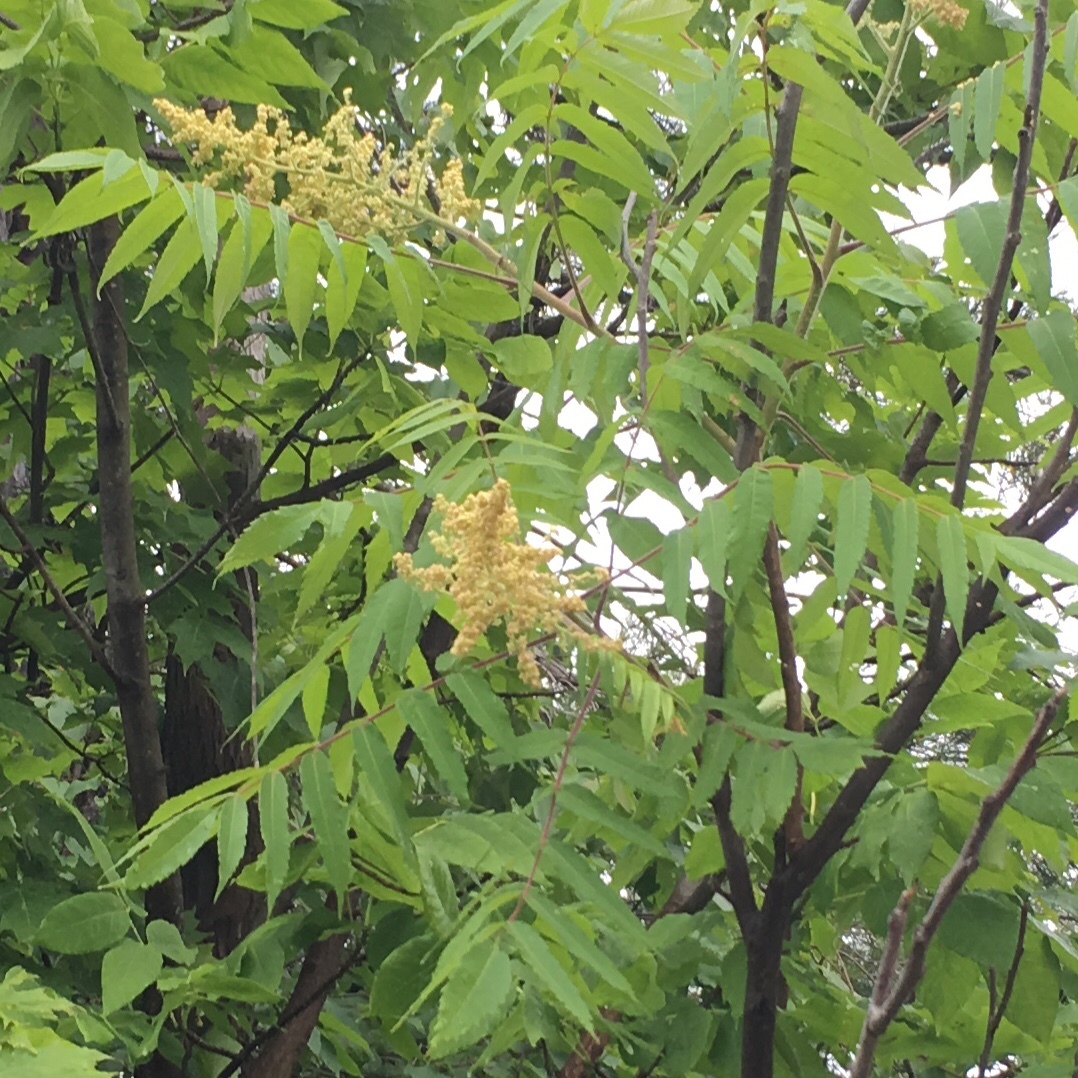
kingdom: Plantae
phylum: Tracheophyta
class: Magnoliopsida
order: Sapindales
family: Anacardiaceae
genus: Rhus
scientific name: Rhus typhina
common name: Staghorn sumac
